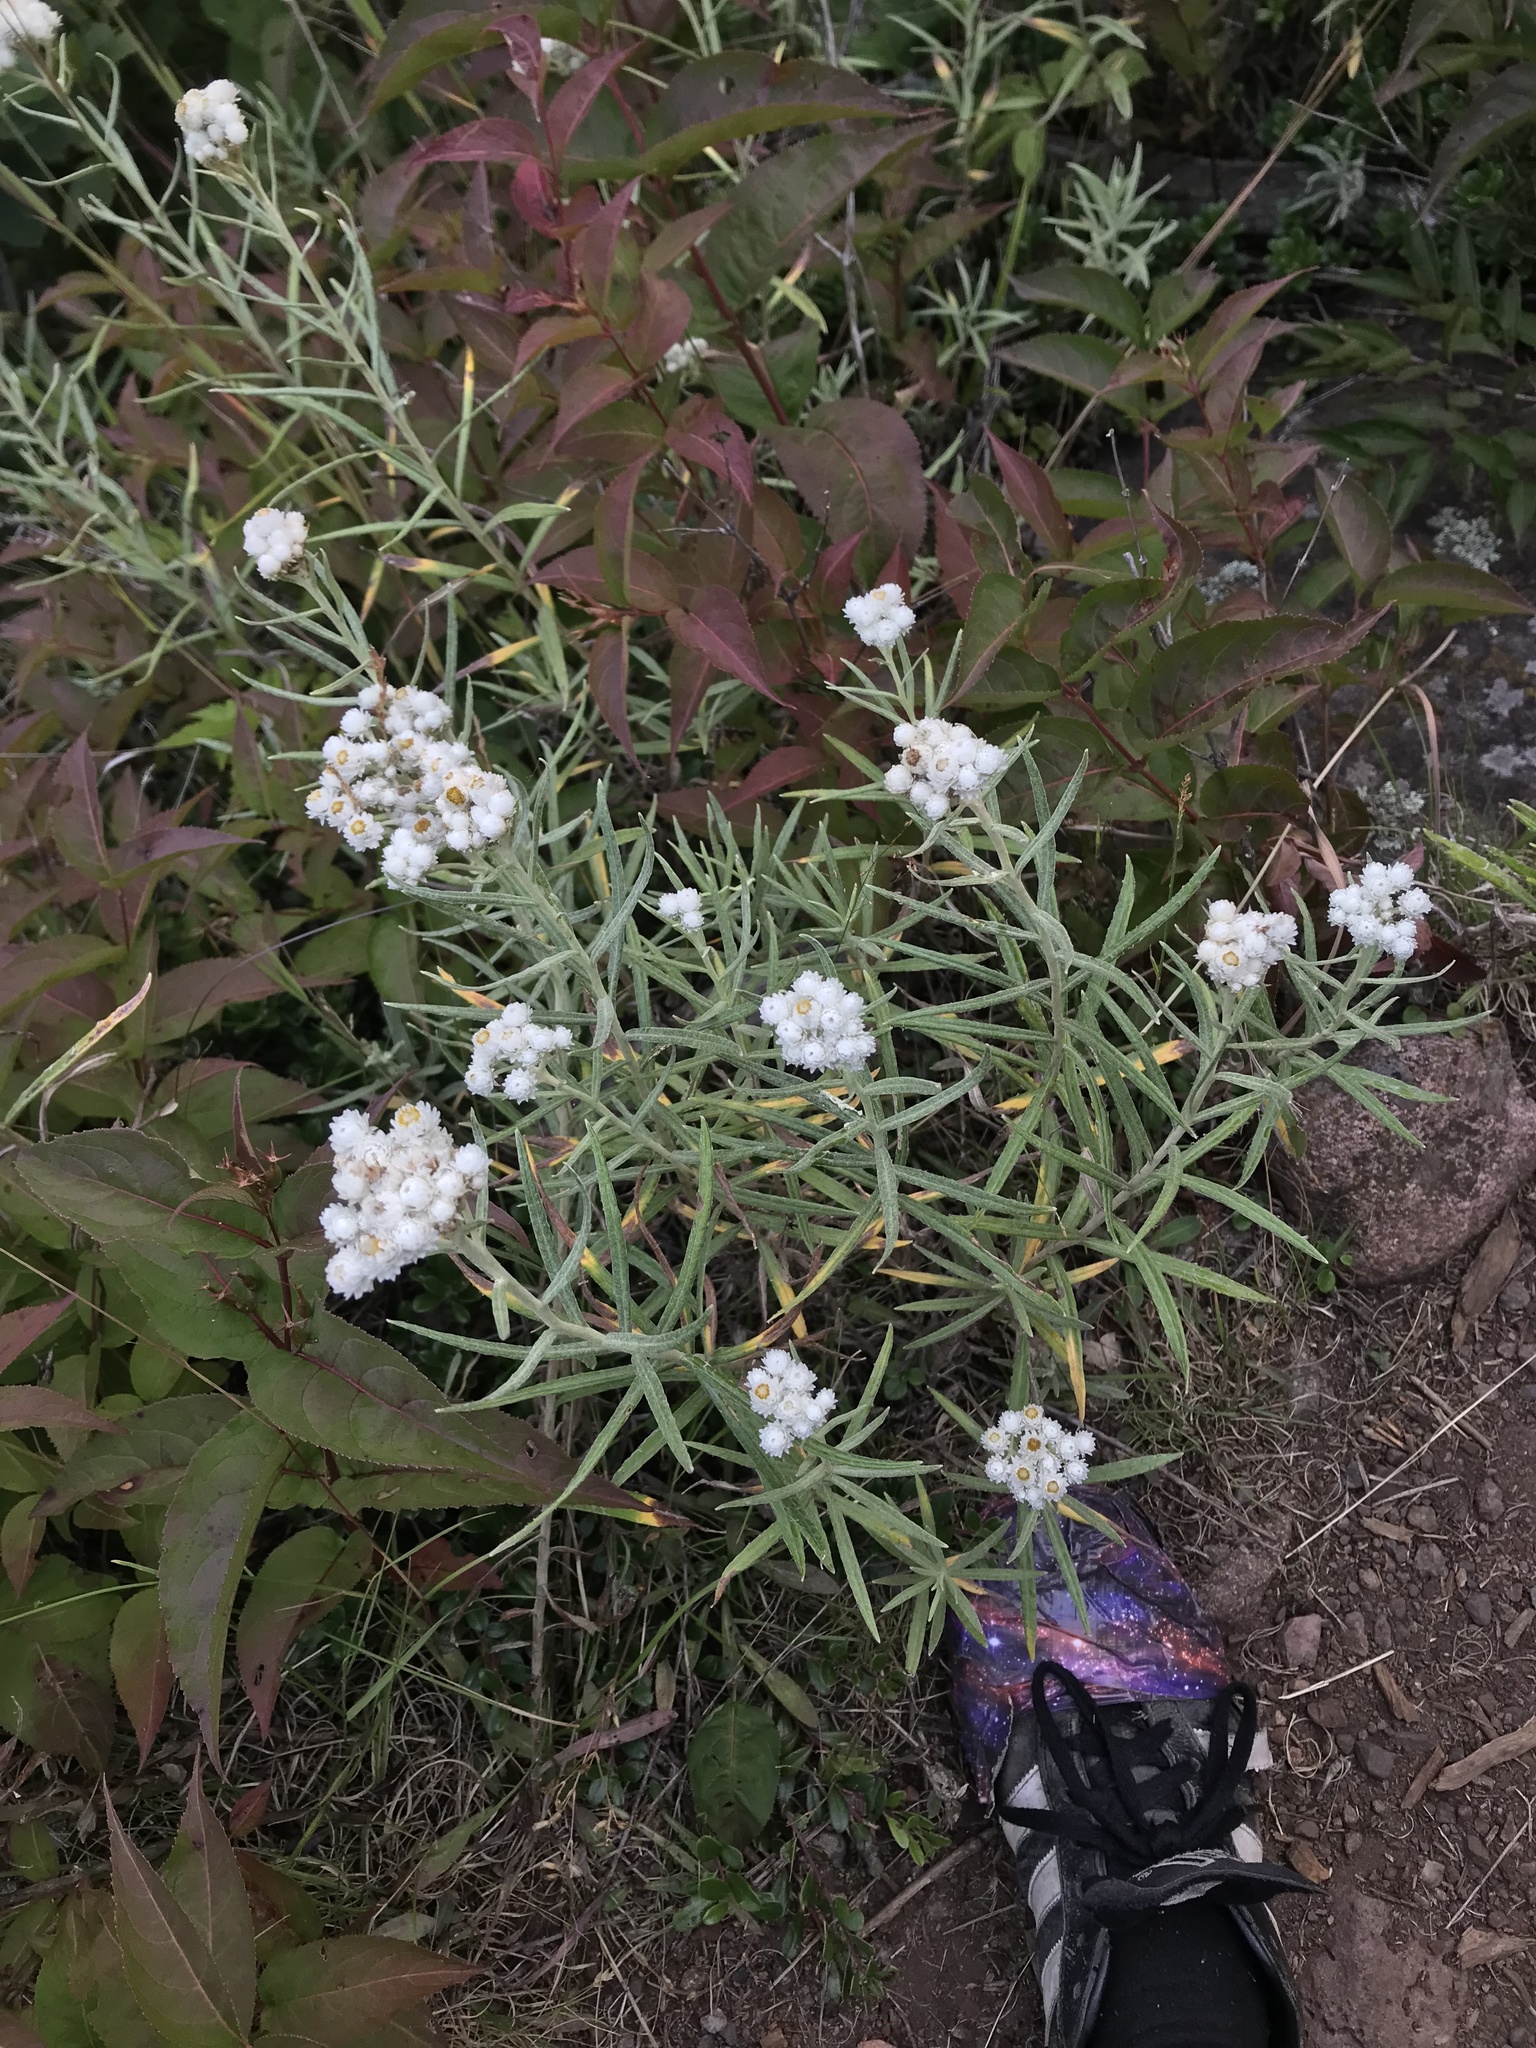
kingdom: Plantae
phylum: Tracheophyta
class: Magnoliopsida
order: Asterales
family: Asteraceae
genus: Anaphalis
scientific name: Anaphalis margaritacea
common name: Pearly everlasting
